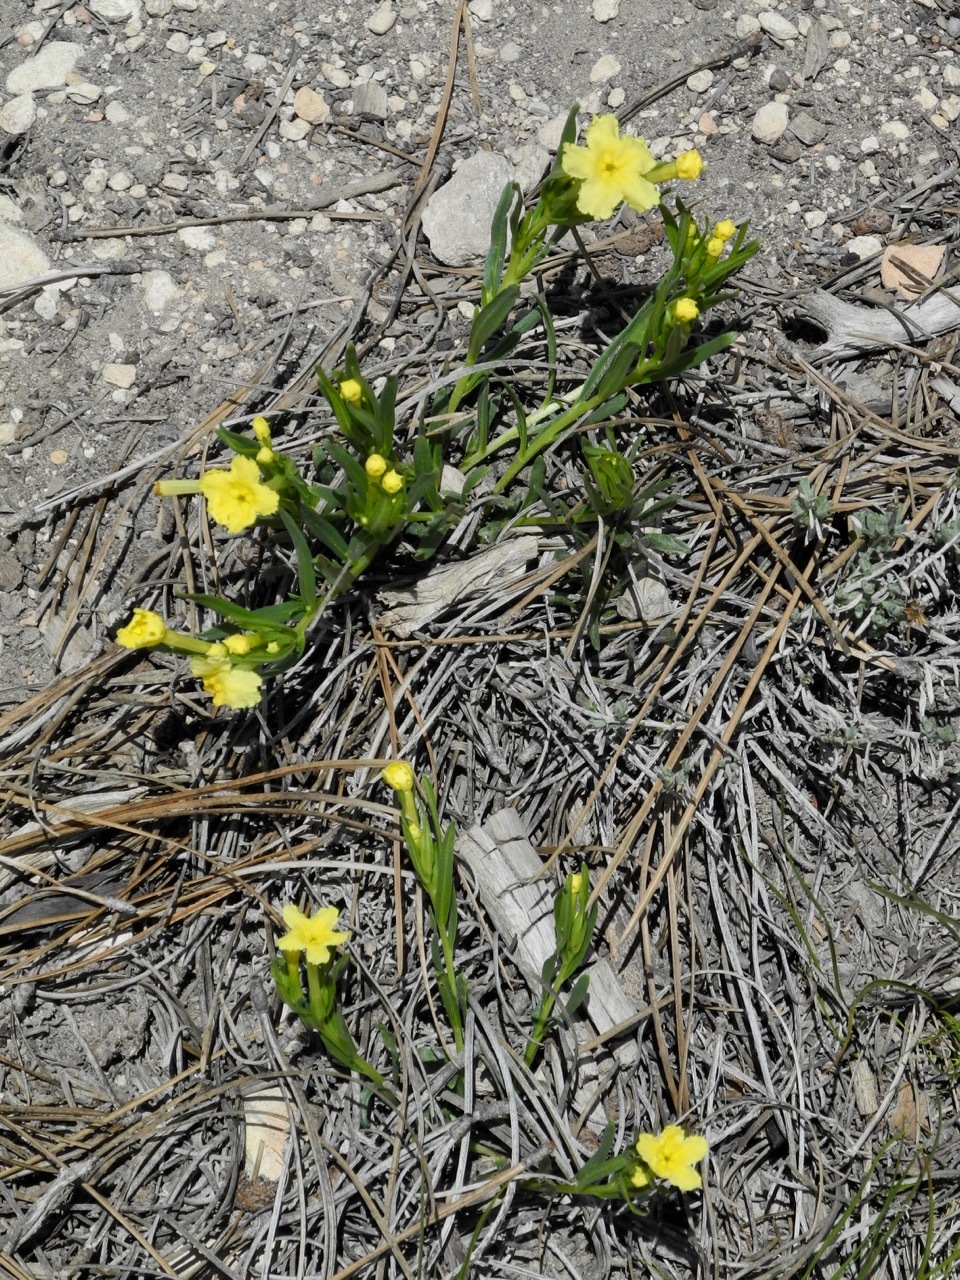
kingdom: Plantae
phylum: Tracheophyta
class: Magnoliopsida
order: Boraginales
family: Boraginaceae
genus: Lithospermum
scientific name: Lithospermum incisum
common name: Fringed gromwell
